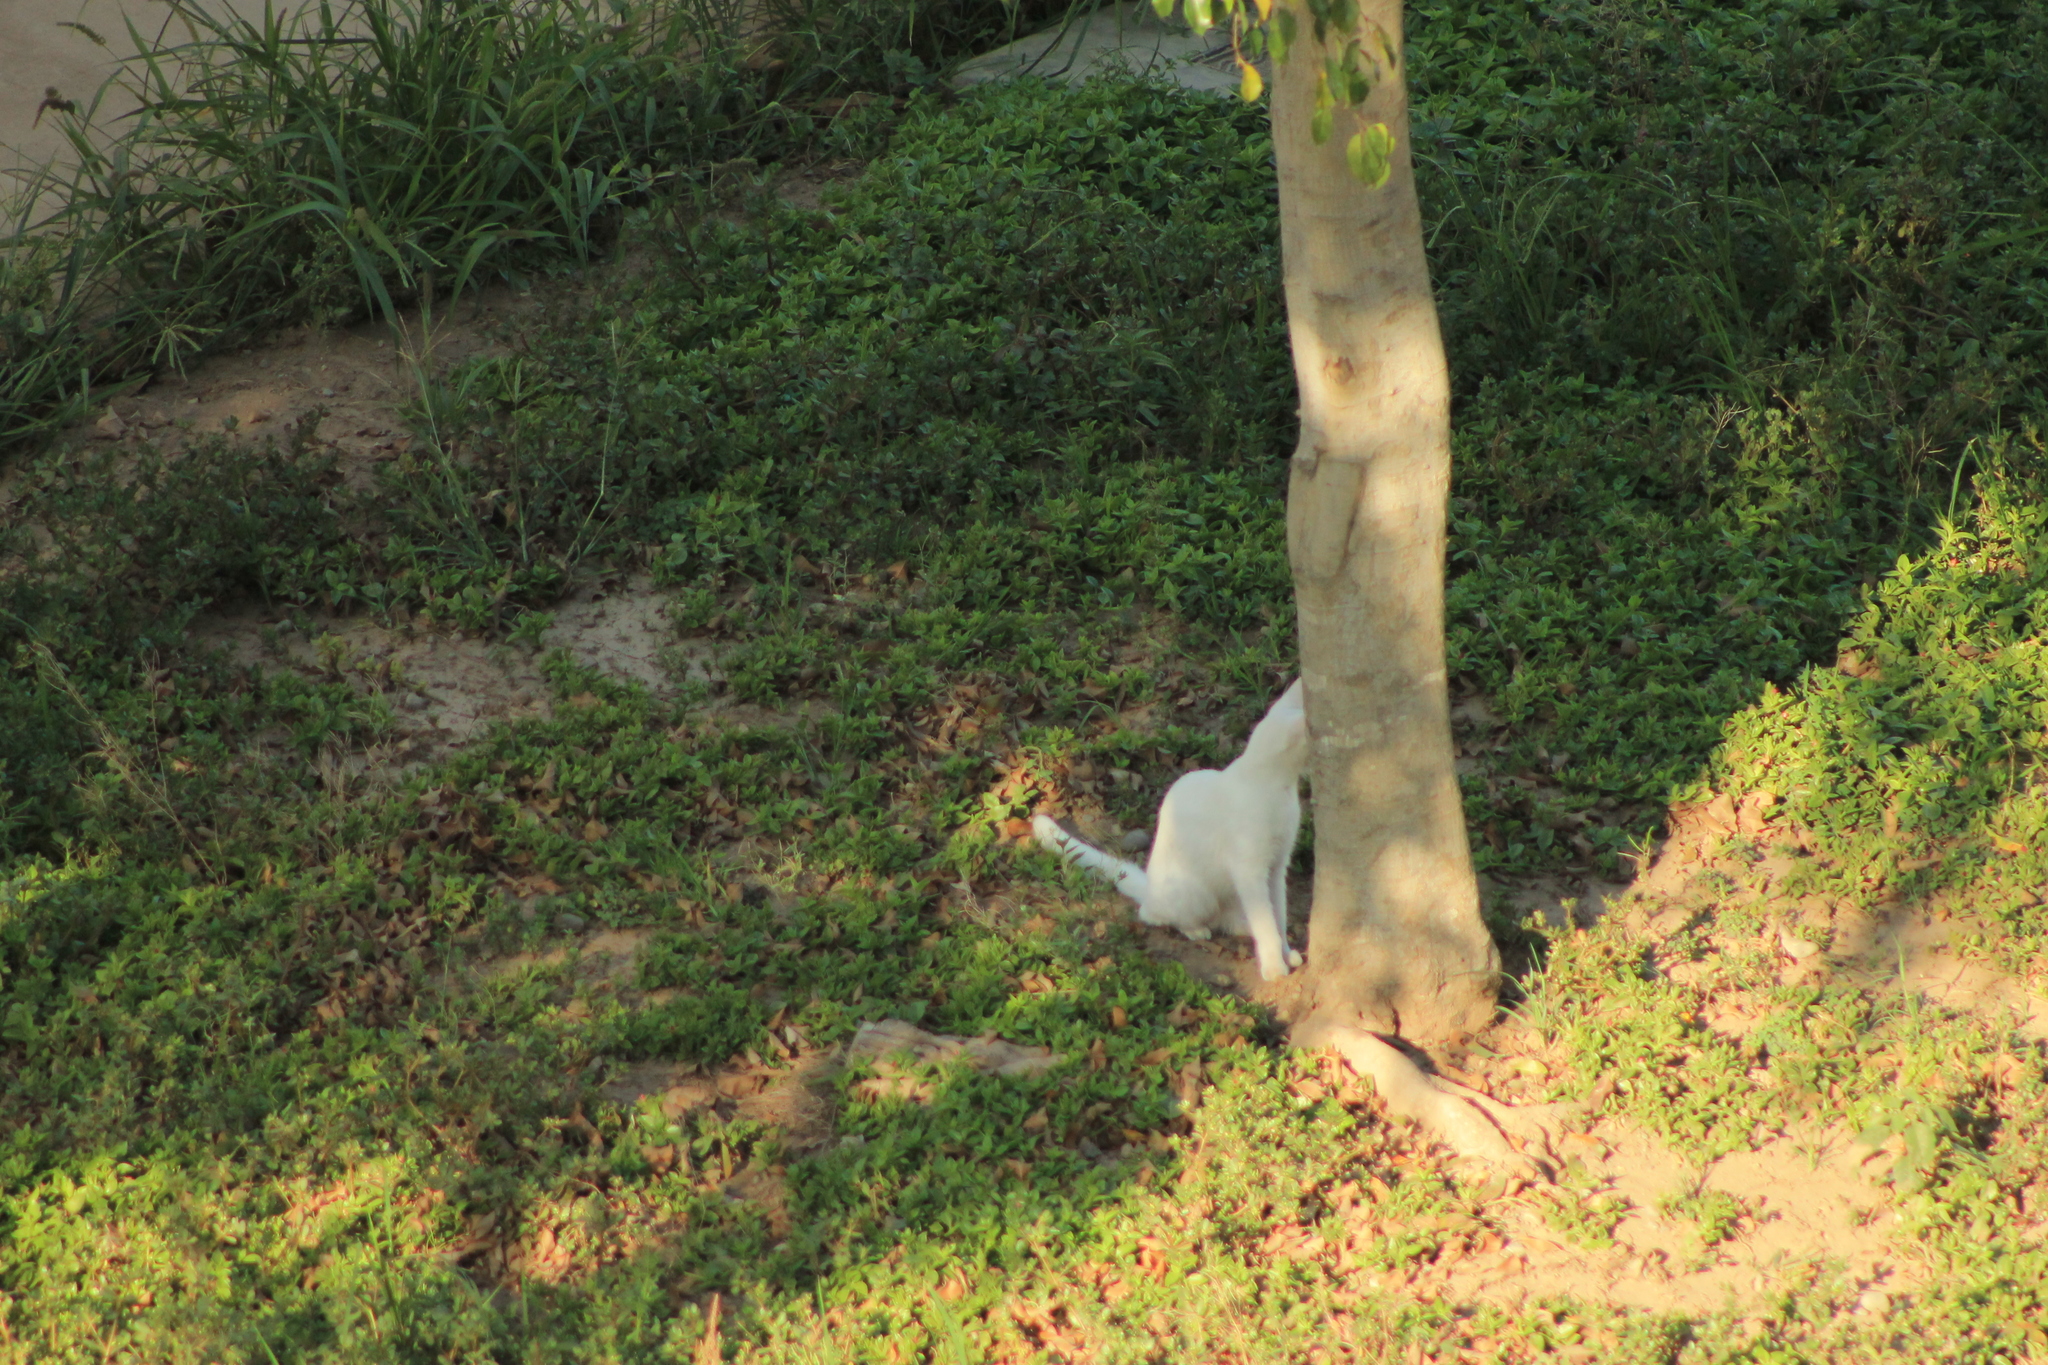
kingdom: Animalia
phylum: Chordata
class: Mammalia
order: Carnivora
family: Felidae
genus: Felis
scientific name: Felis catus
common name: Domestic cat
